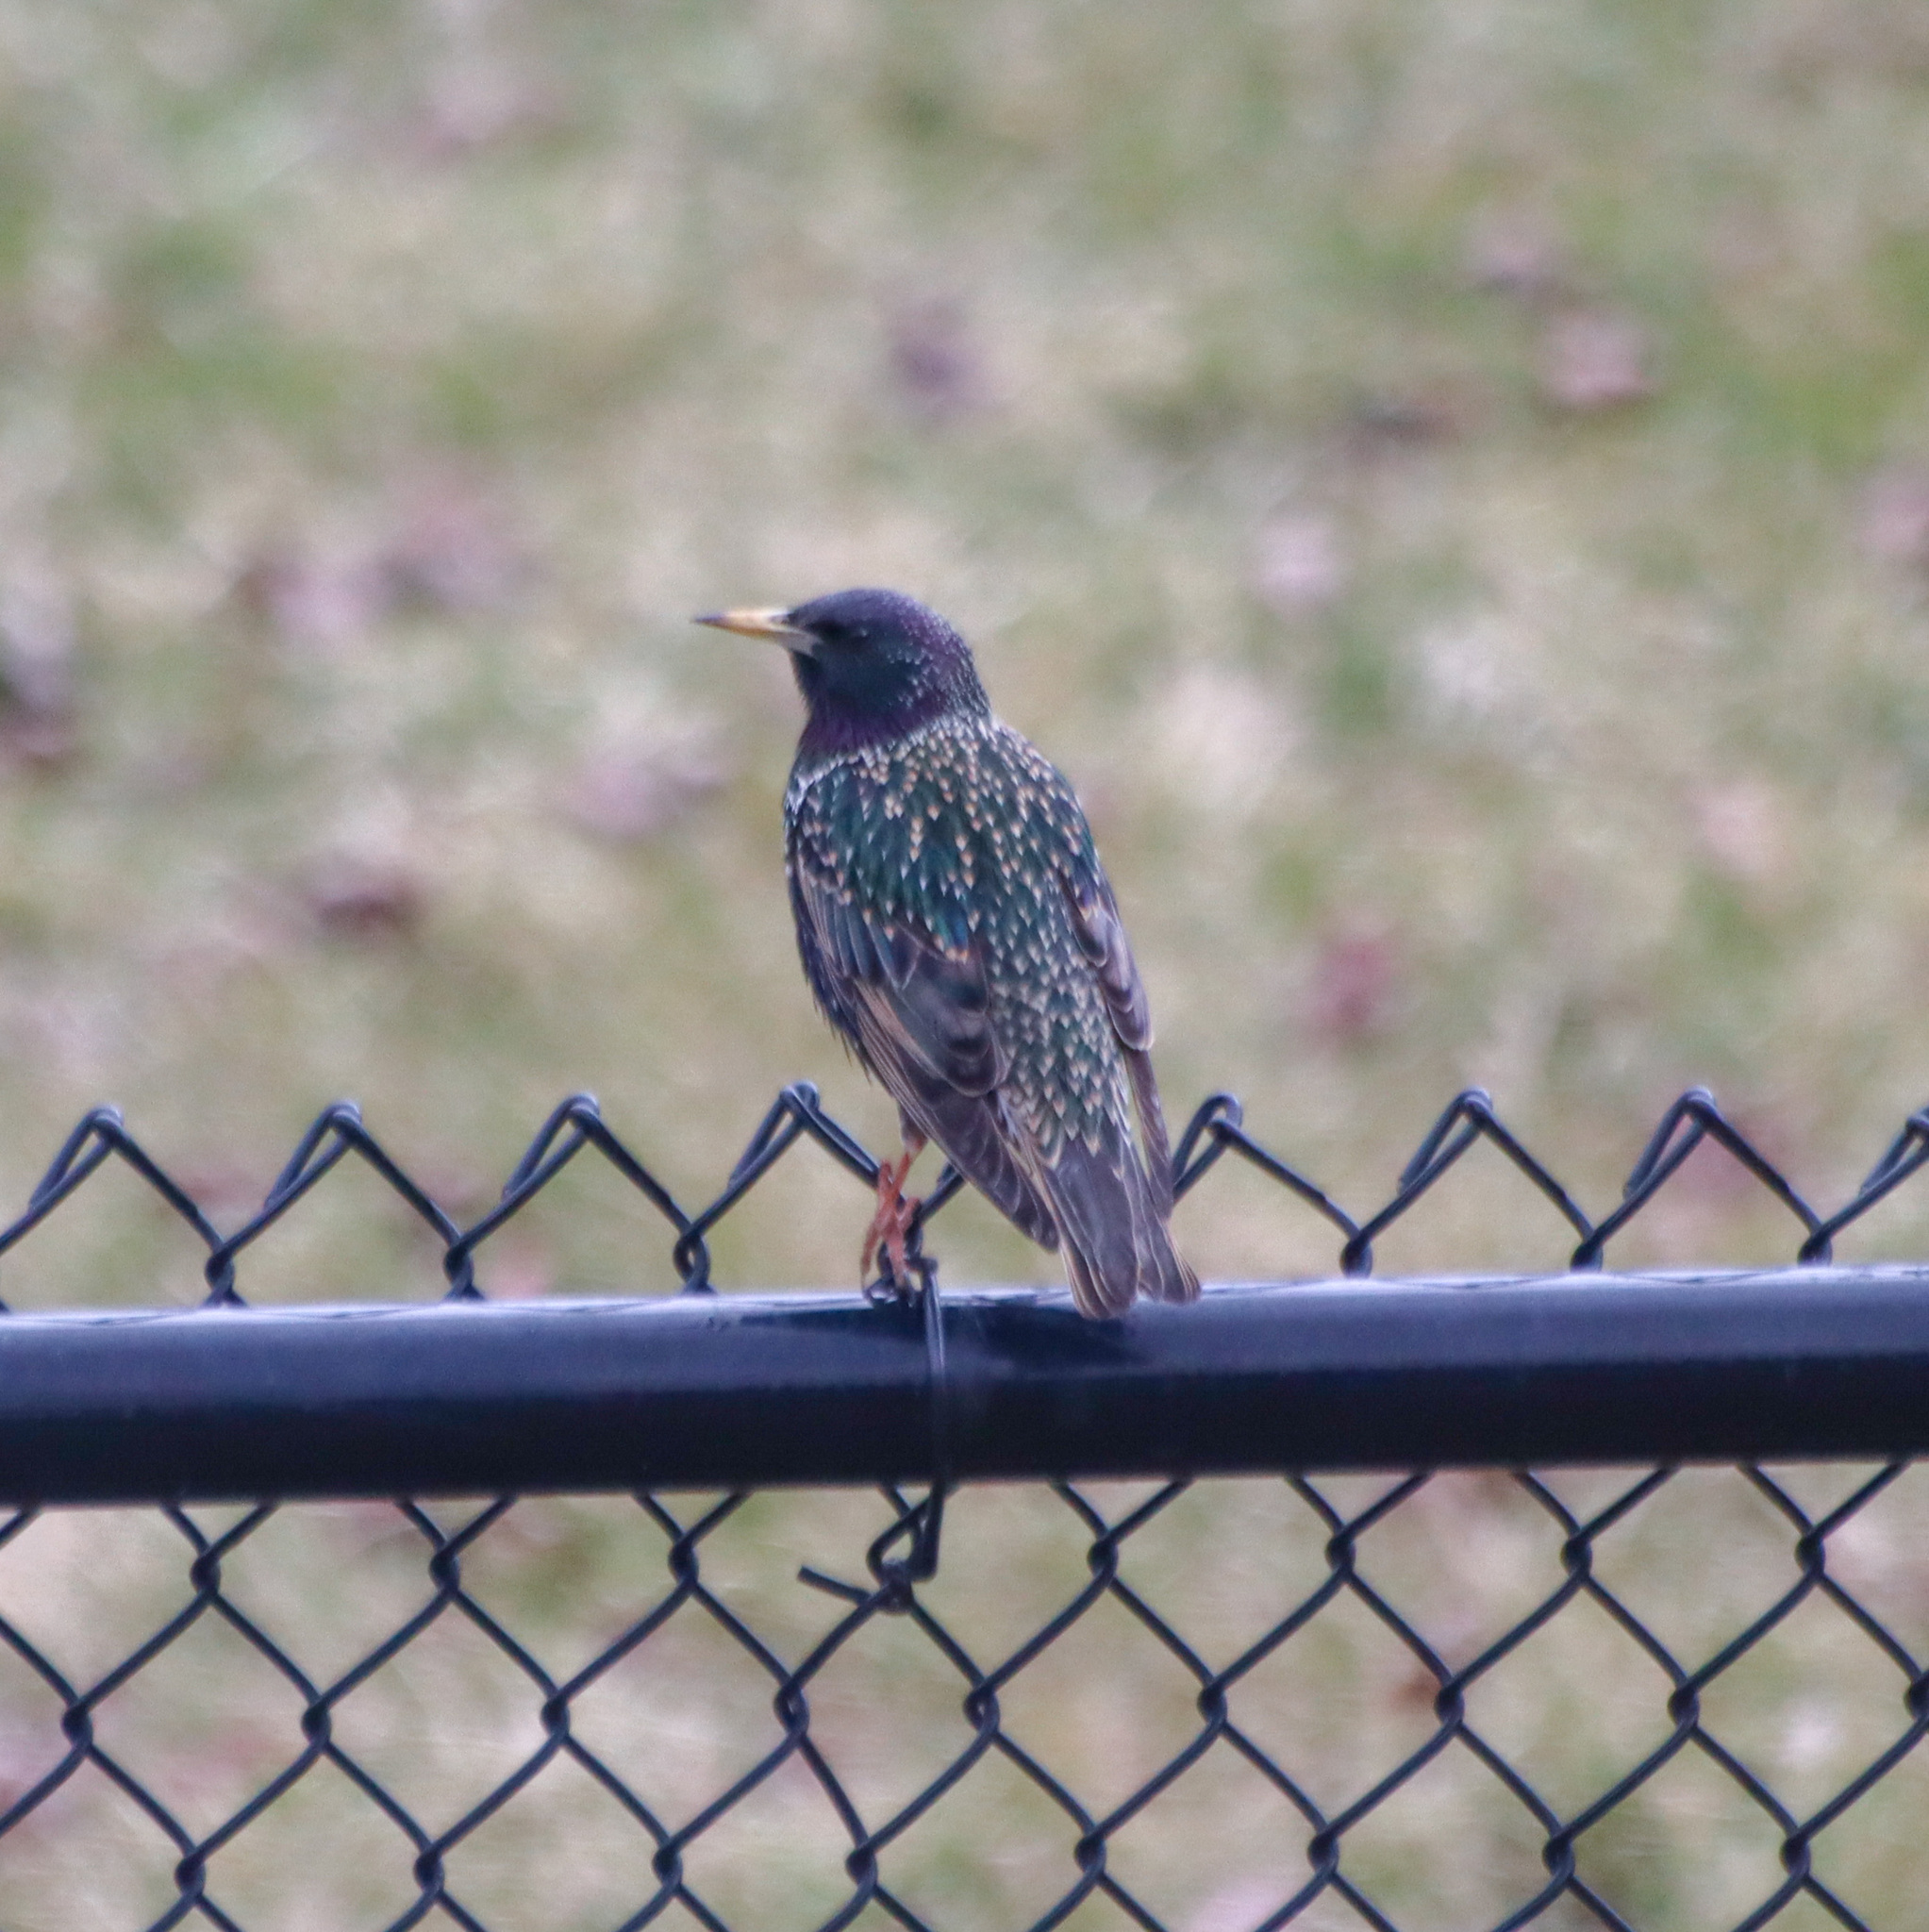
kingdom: Animalia
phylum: Chordata
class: Aves
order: Passeriformes
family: Sturnidae
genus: Sturnus
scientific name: Sturnus vulgaris
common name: Common starling
